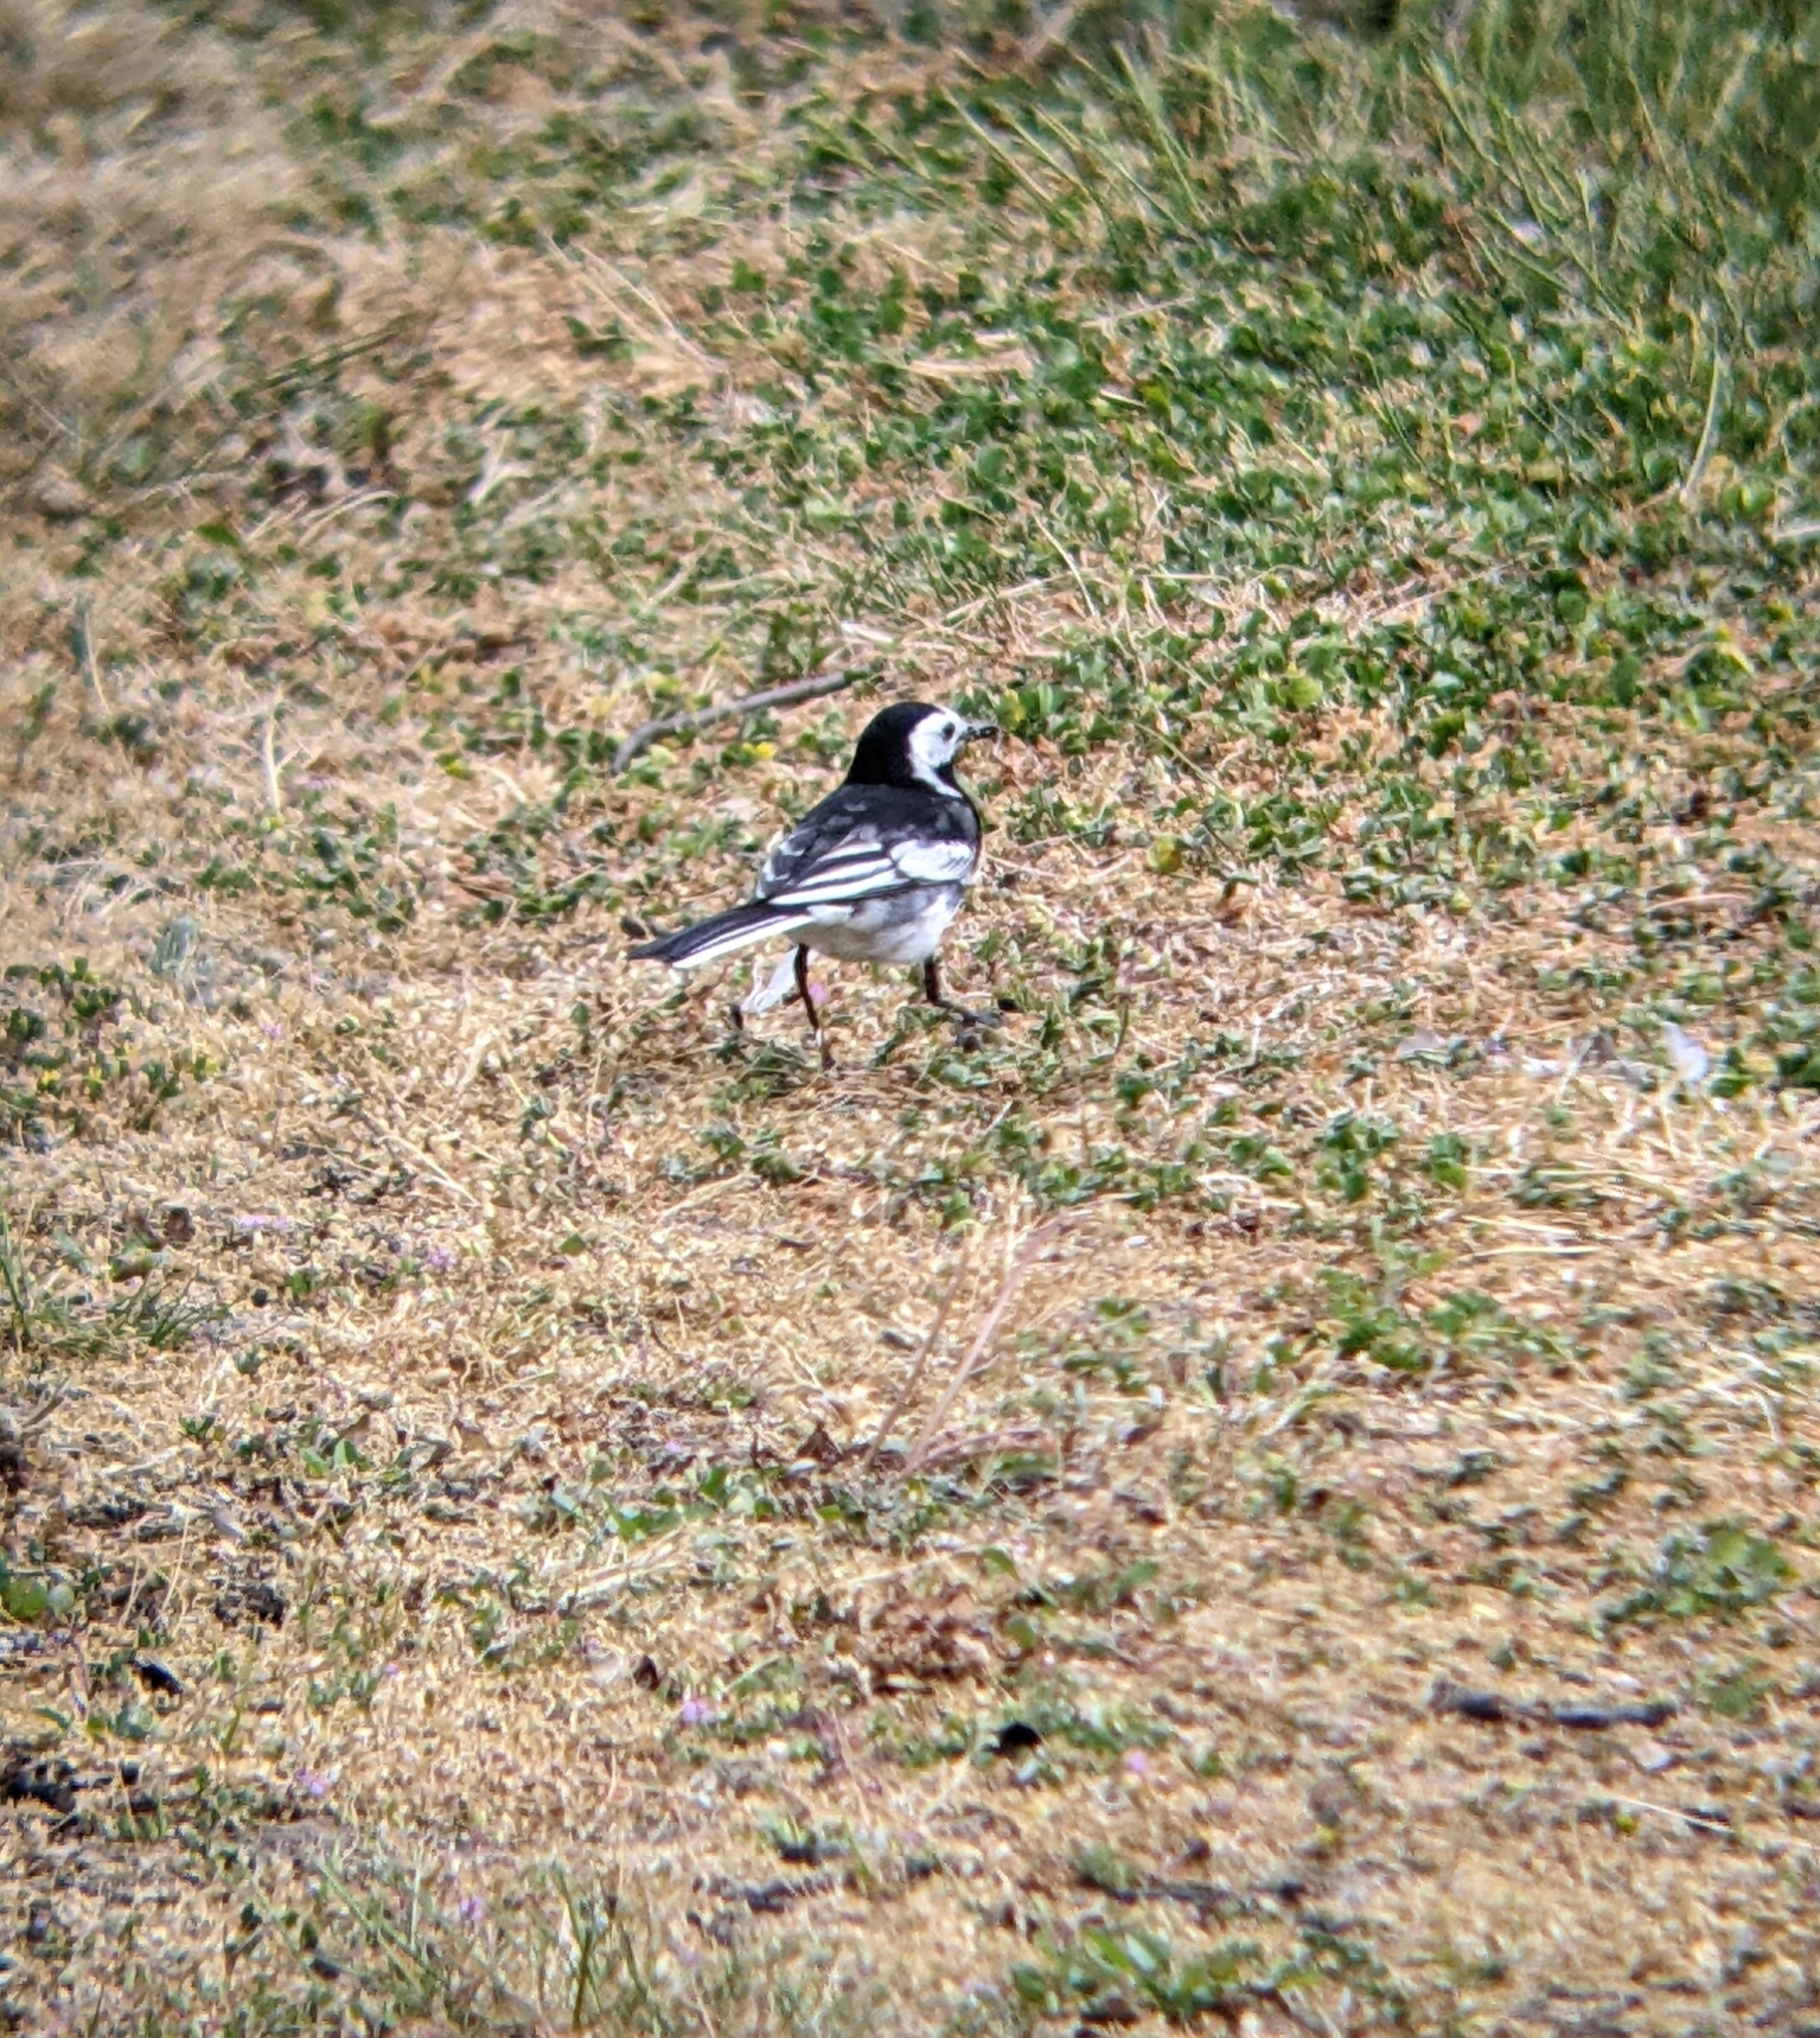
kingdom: Animalia
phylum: Chordata
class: Aves
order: Passeriformes
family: Motacillidae
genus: Motacilla
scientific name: Motacilla alba
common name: White wagtail
